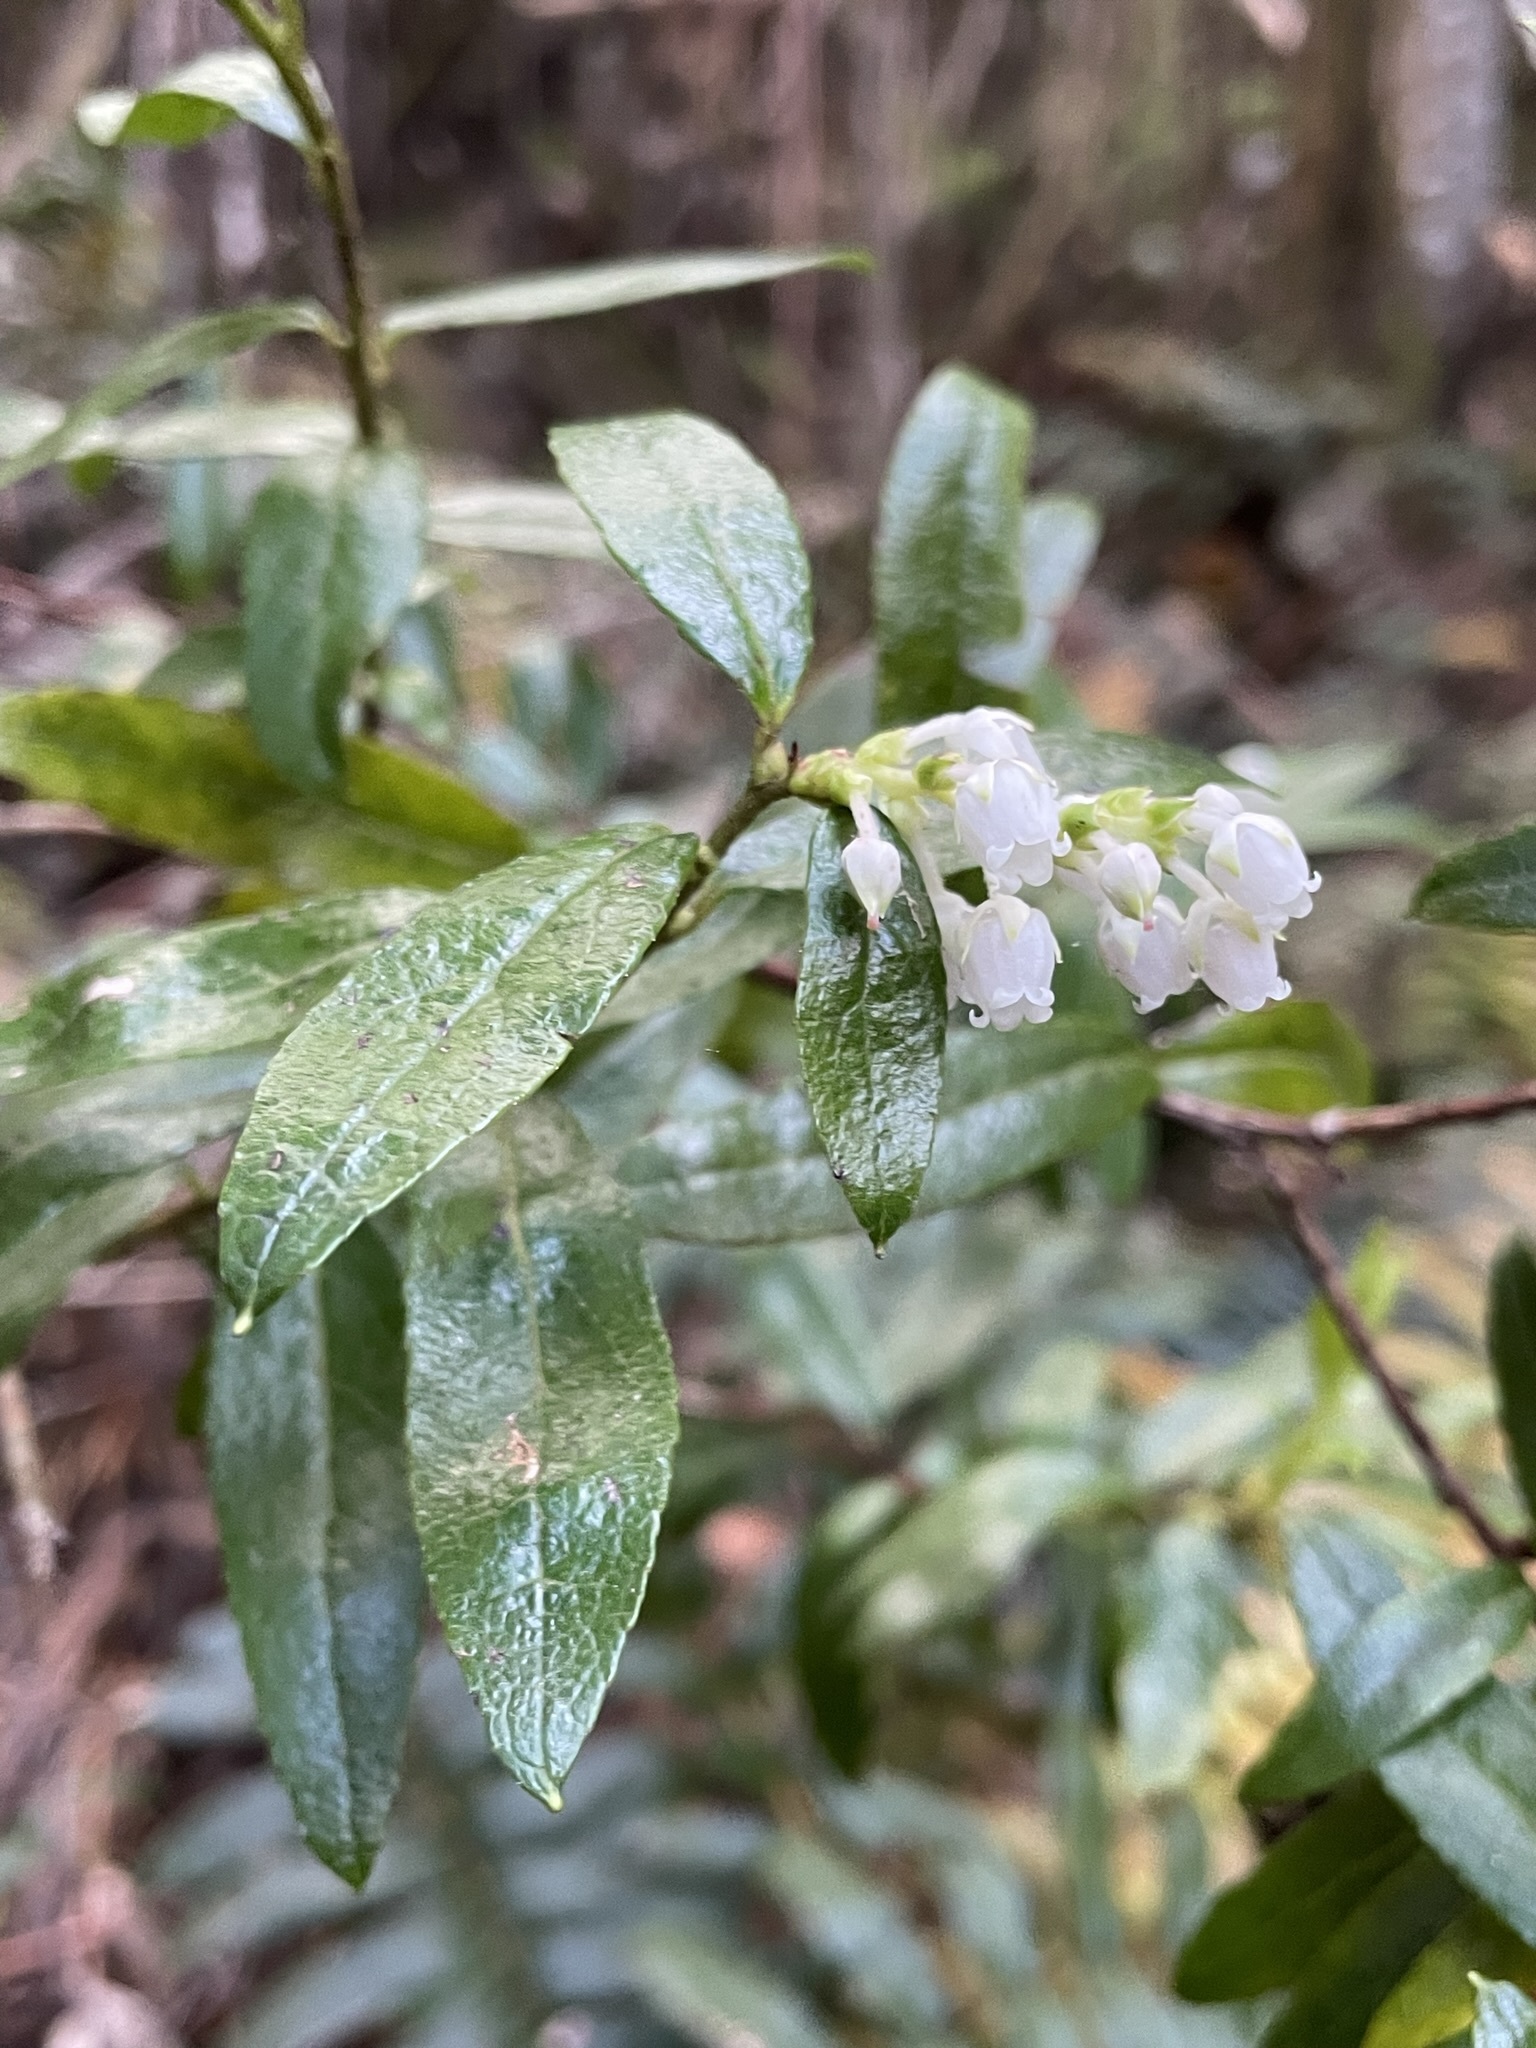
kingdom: Plantae
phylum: Tracheophyta
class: Magnoliopsida
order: Ericales
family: Ericaceae
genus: Gaultheria
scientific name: Gaultheria hispida
